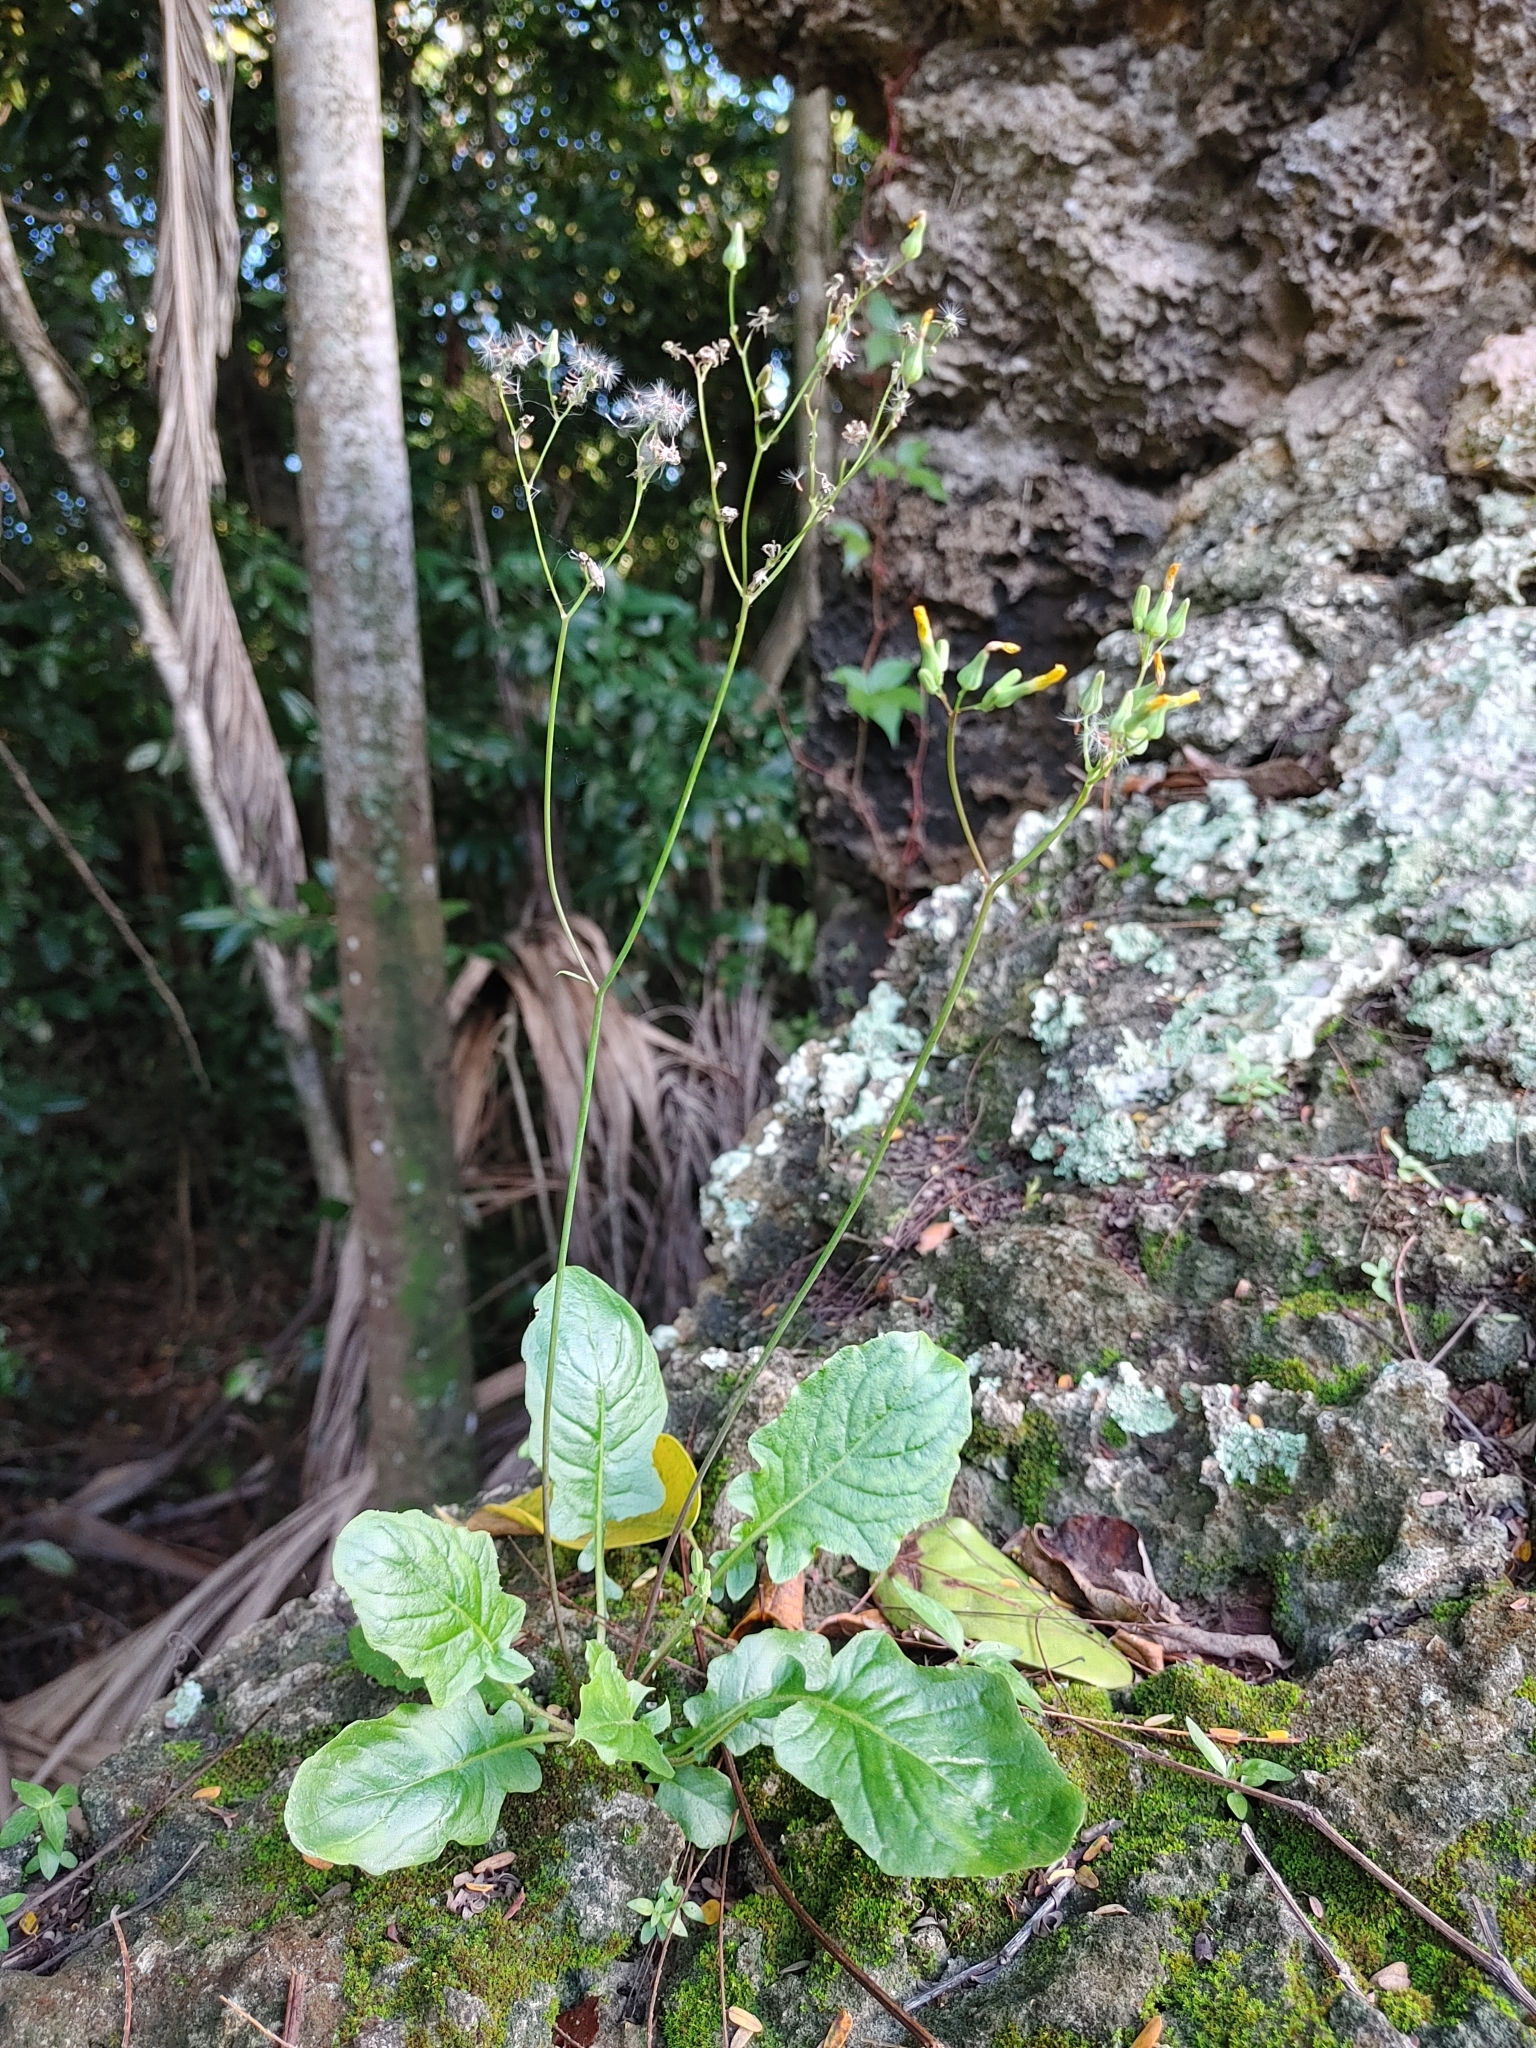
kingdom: Plantae
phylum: Tracheophyta
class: Magnoliopsida
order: Asterales
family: Asteraceae
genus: Youngia
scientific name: Youngia japonica
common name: Oriental false hawksbeard
